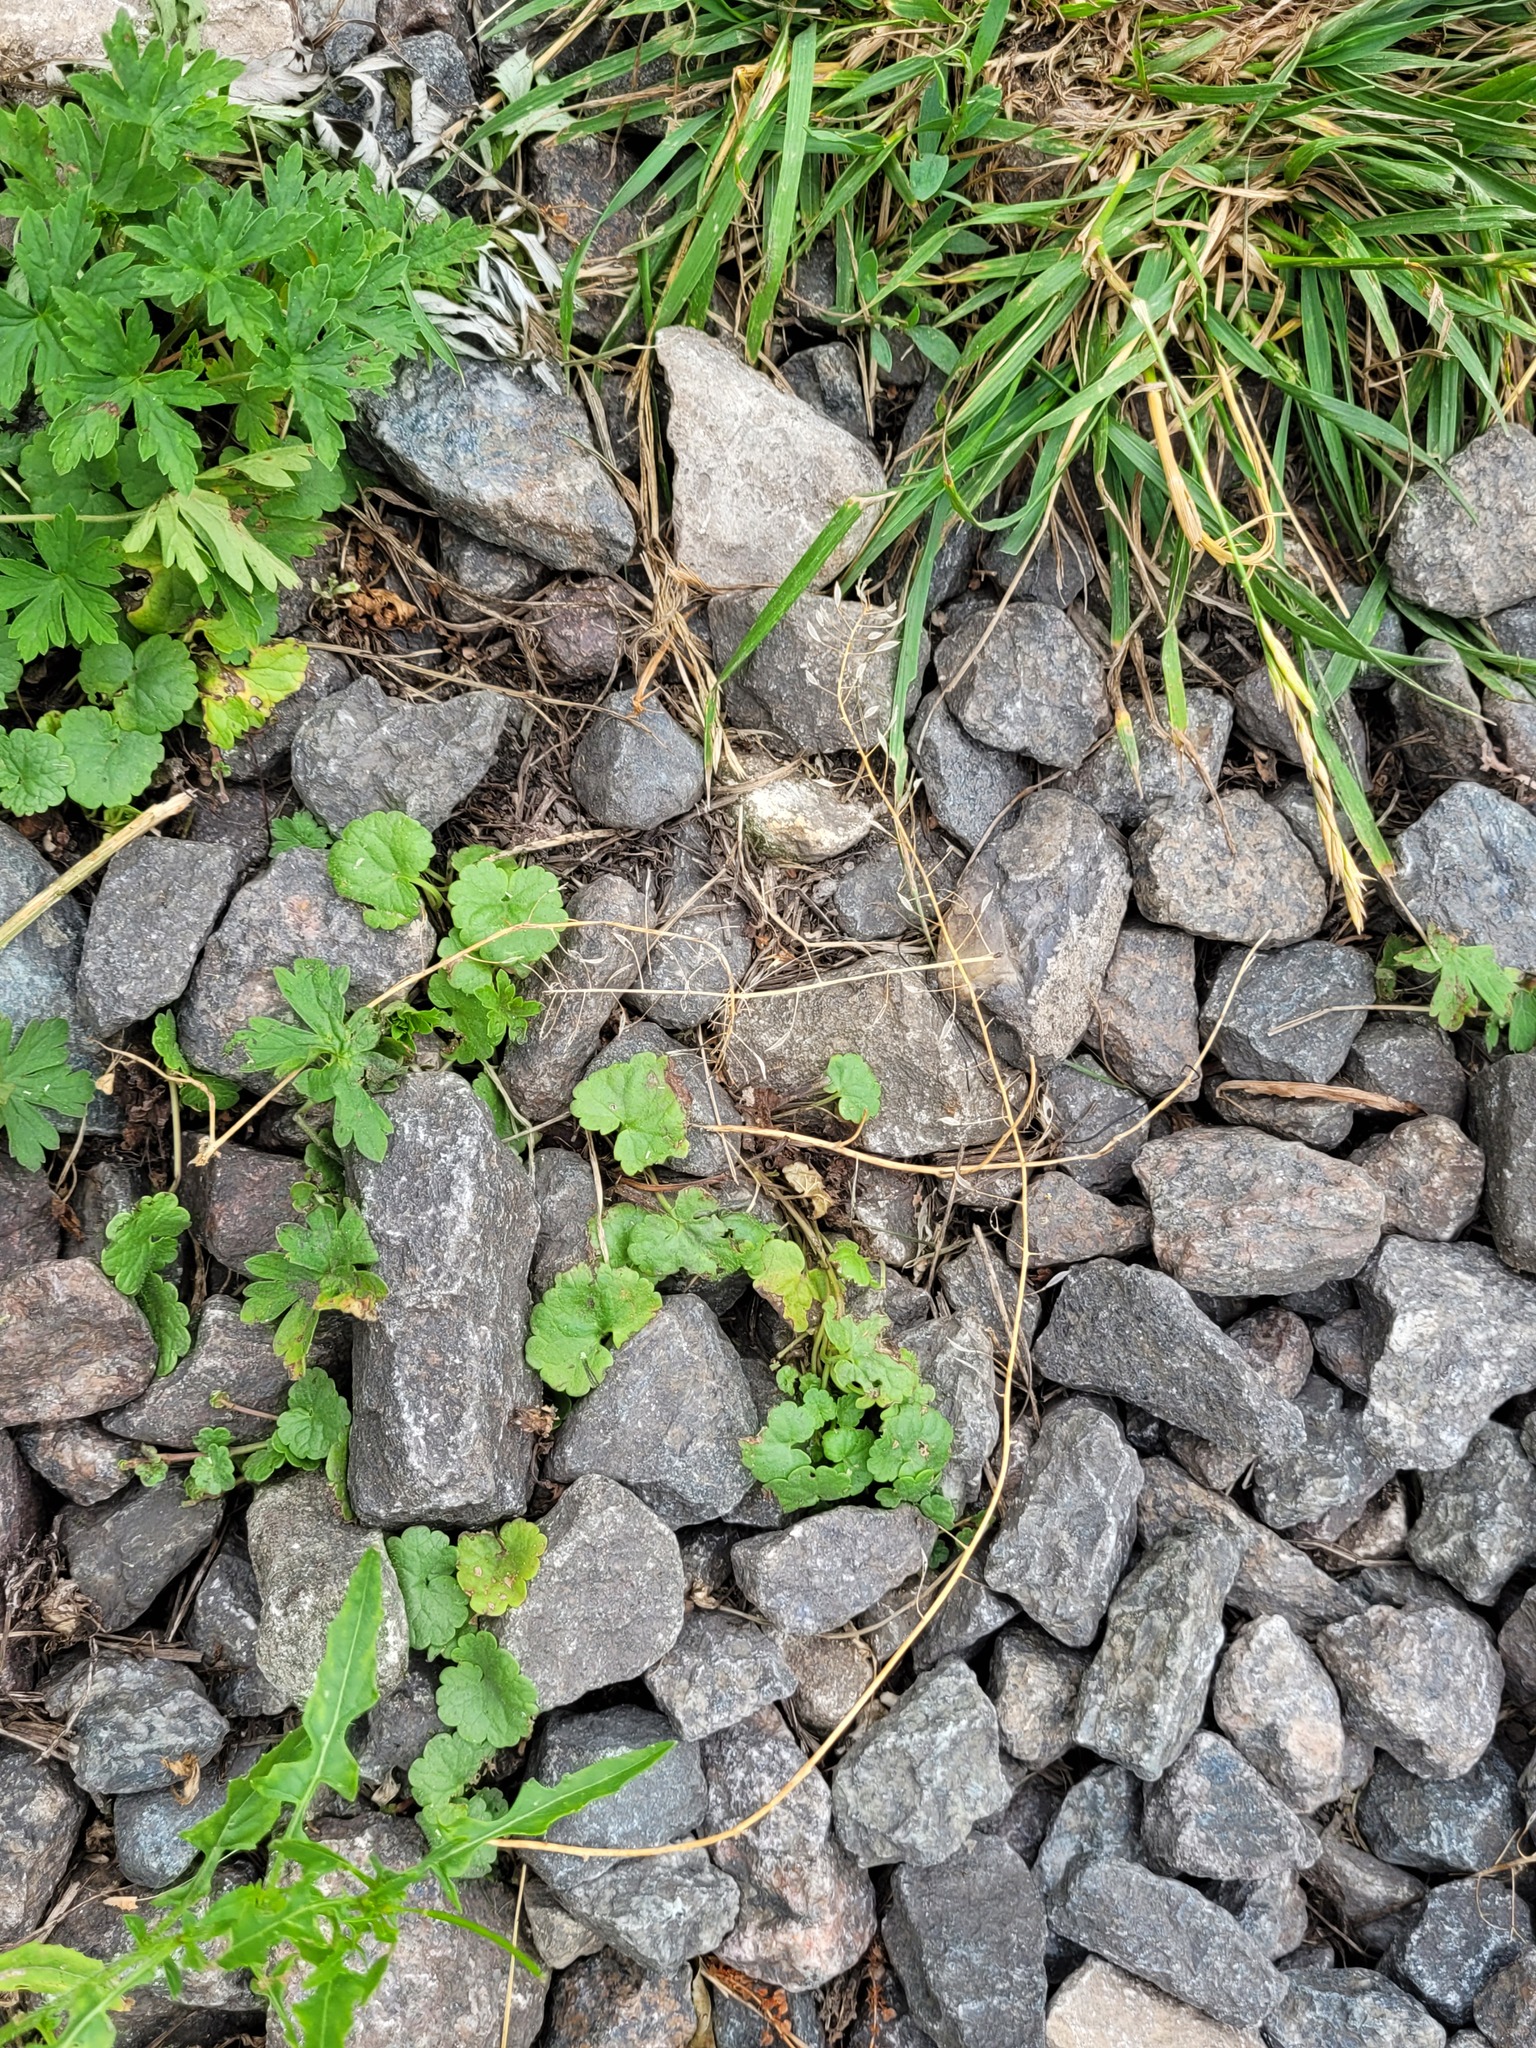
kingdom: Plantae
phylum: Tracheophyta
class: Magnoliopsida
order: Lamiales
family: Lamiaceae
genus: Glechoma
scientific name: Glechoma hederacea
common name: Ground ivy
